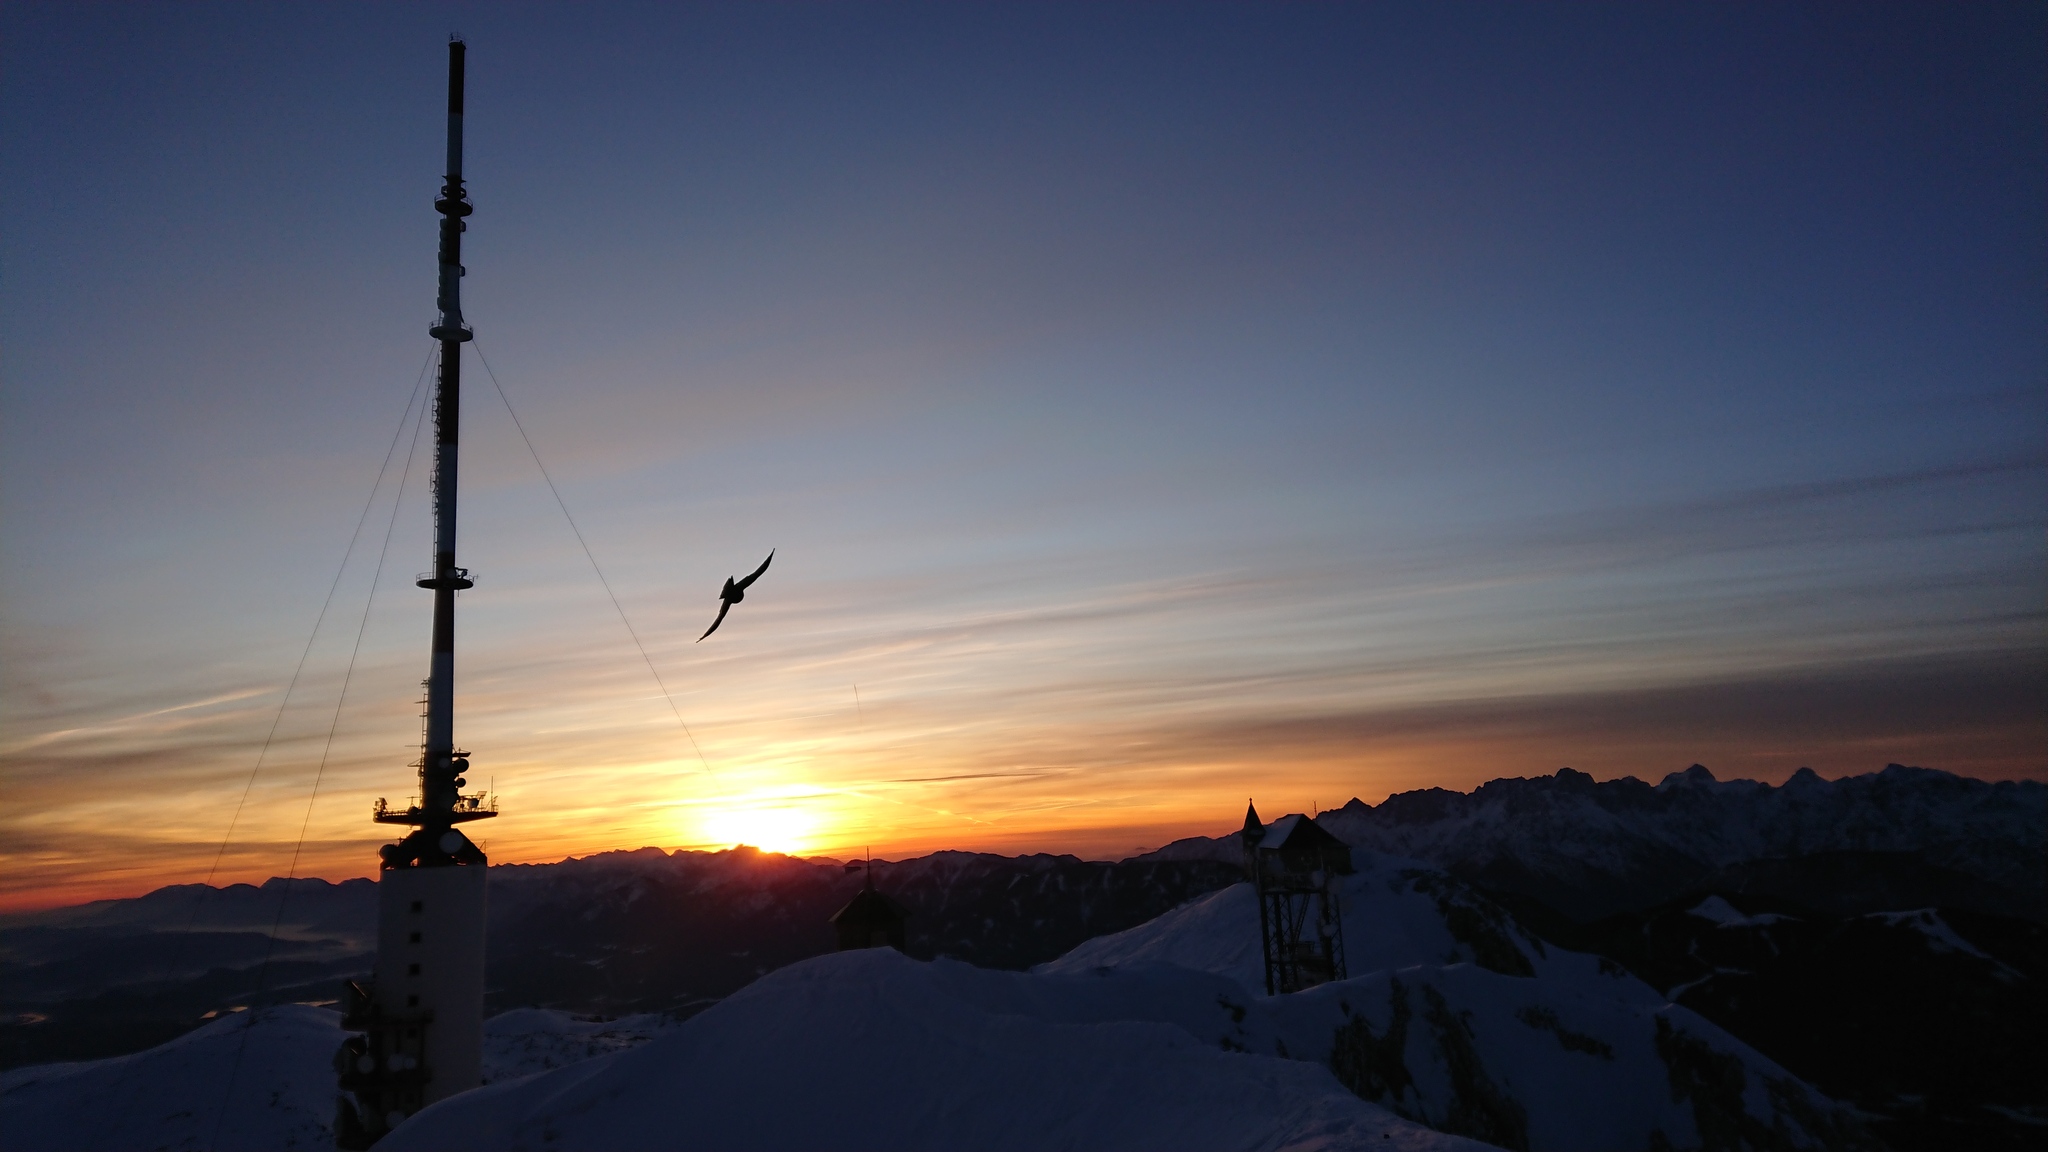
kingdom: Animalia
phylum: Chordata
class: Aves
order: Passeriformes
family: Corvidae
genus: Pyrrhocorax
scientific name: Pyrrhocorax graculus
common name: Alpine chough
